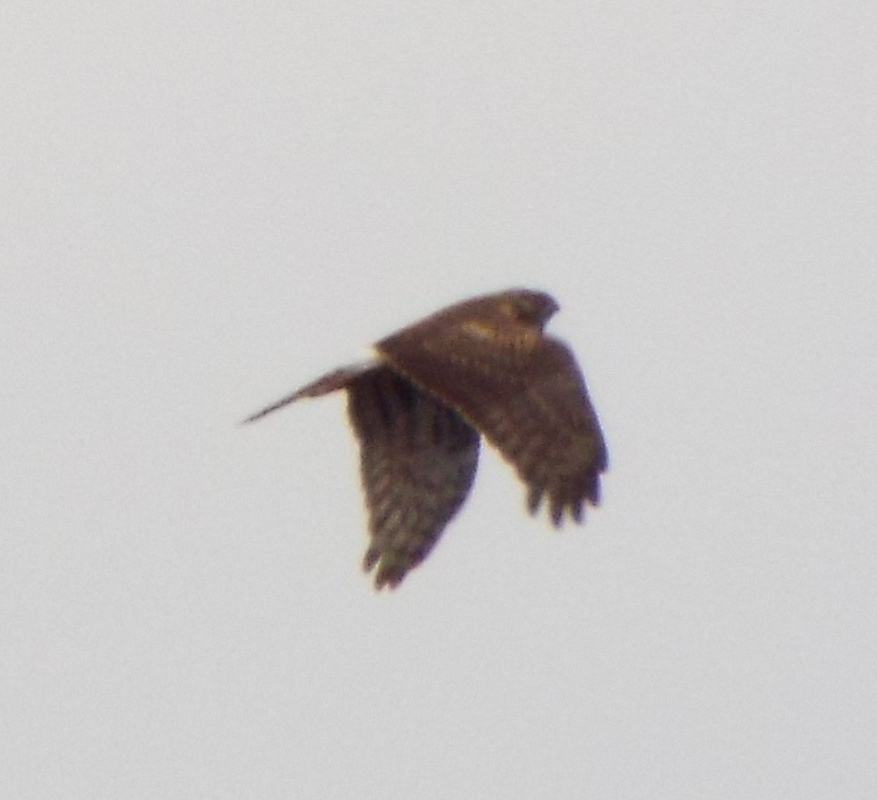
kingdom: Animalia
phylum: Chordata
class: Aves
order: Accipitriformes
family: Accipitridae
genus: Circus
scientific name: Circus cyaneus
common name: Hen harrier
